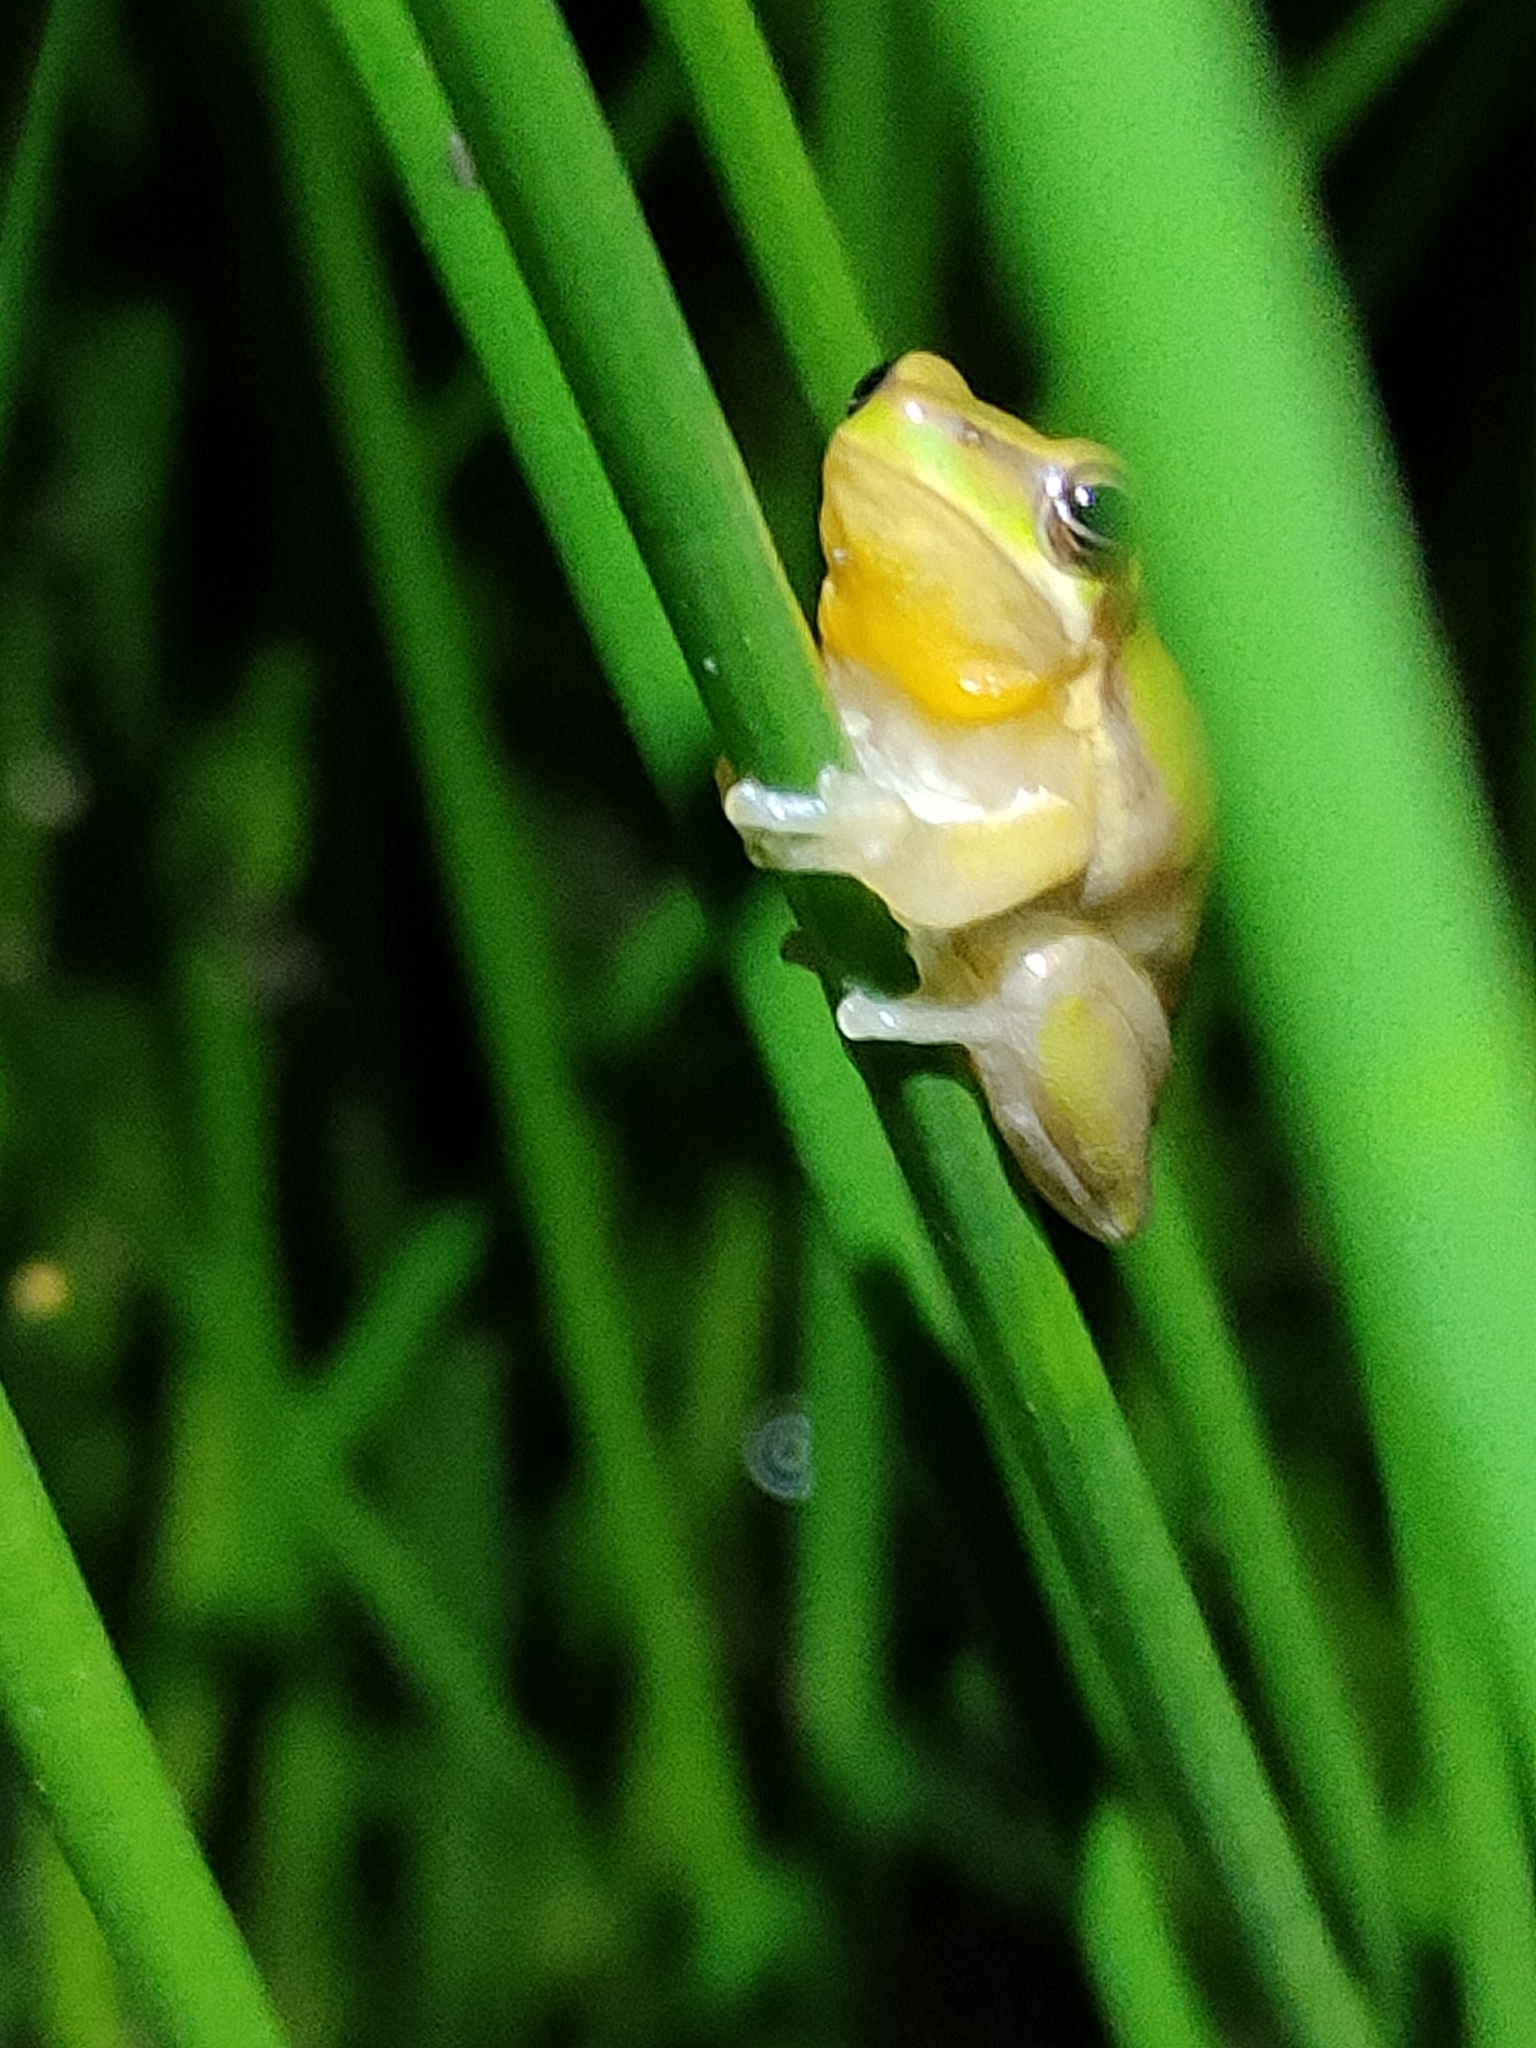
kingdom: Animalia
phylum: Chordata
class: Amphibia
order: Anura
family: Pelodryadidae
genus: Litoria
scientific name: Litoria fallax
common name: Eastern dwarf treefrog
